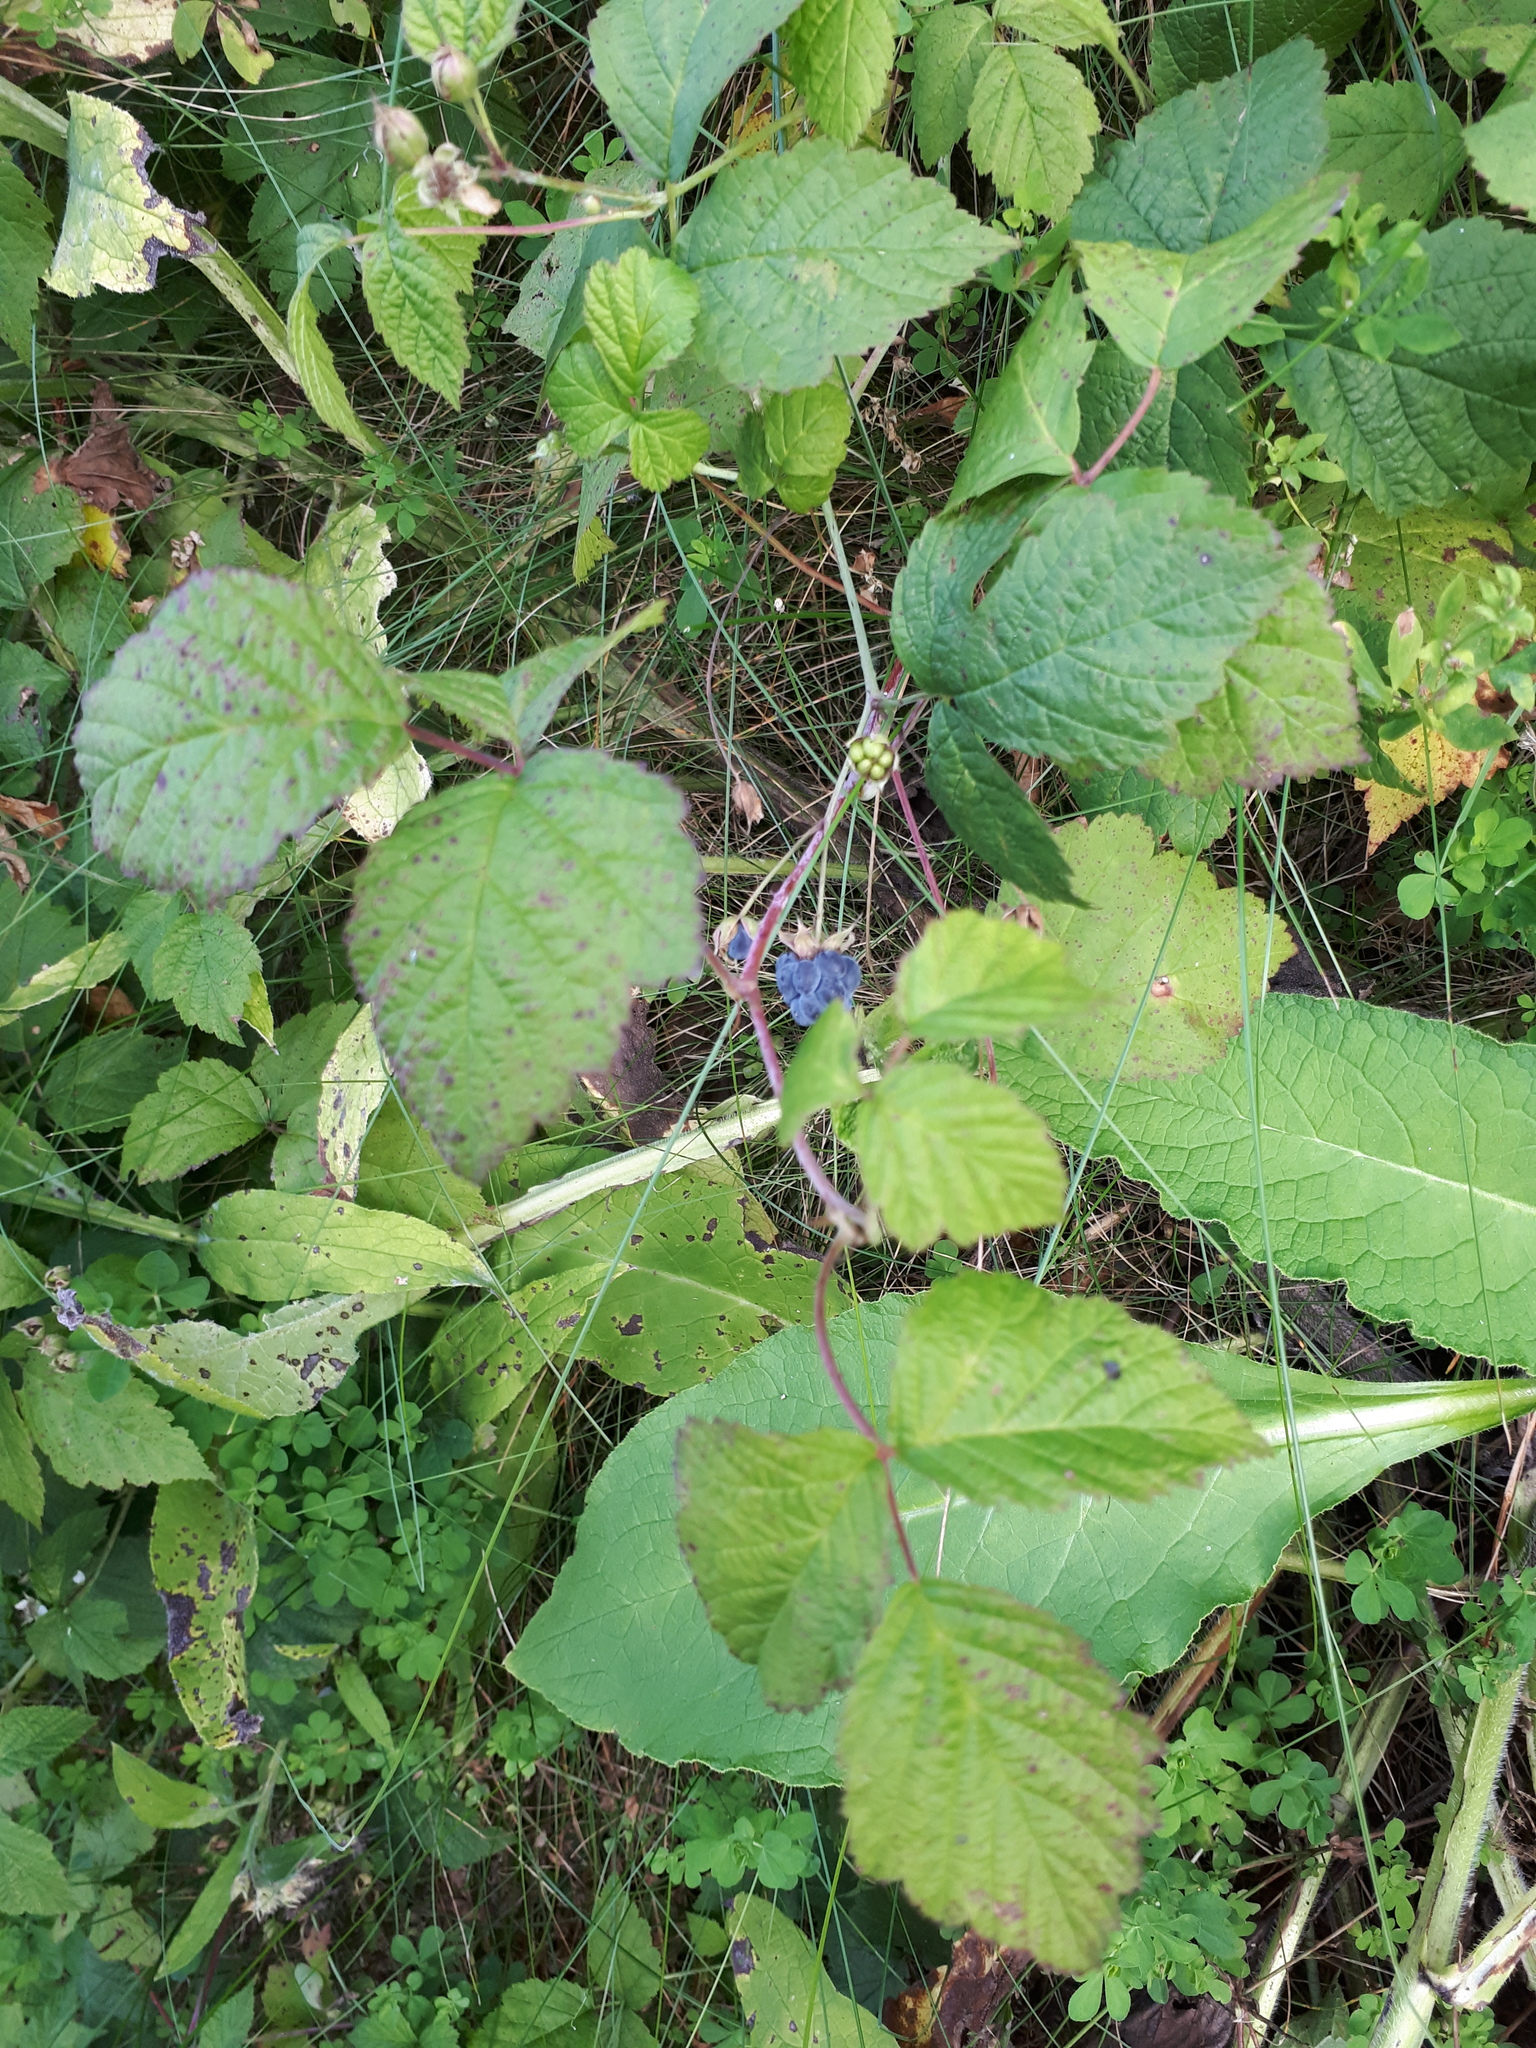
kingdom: Plantae
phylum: Tracheophyta
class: Magnoliopsida
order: Rosales
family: Rosaceae
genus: Rubus
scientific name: Rubus caesius
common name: Dewberry
